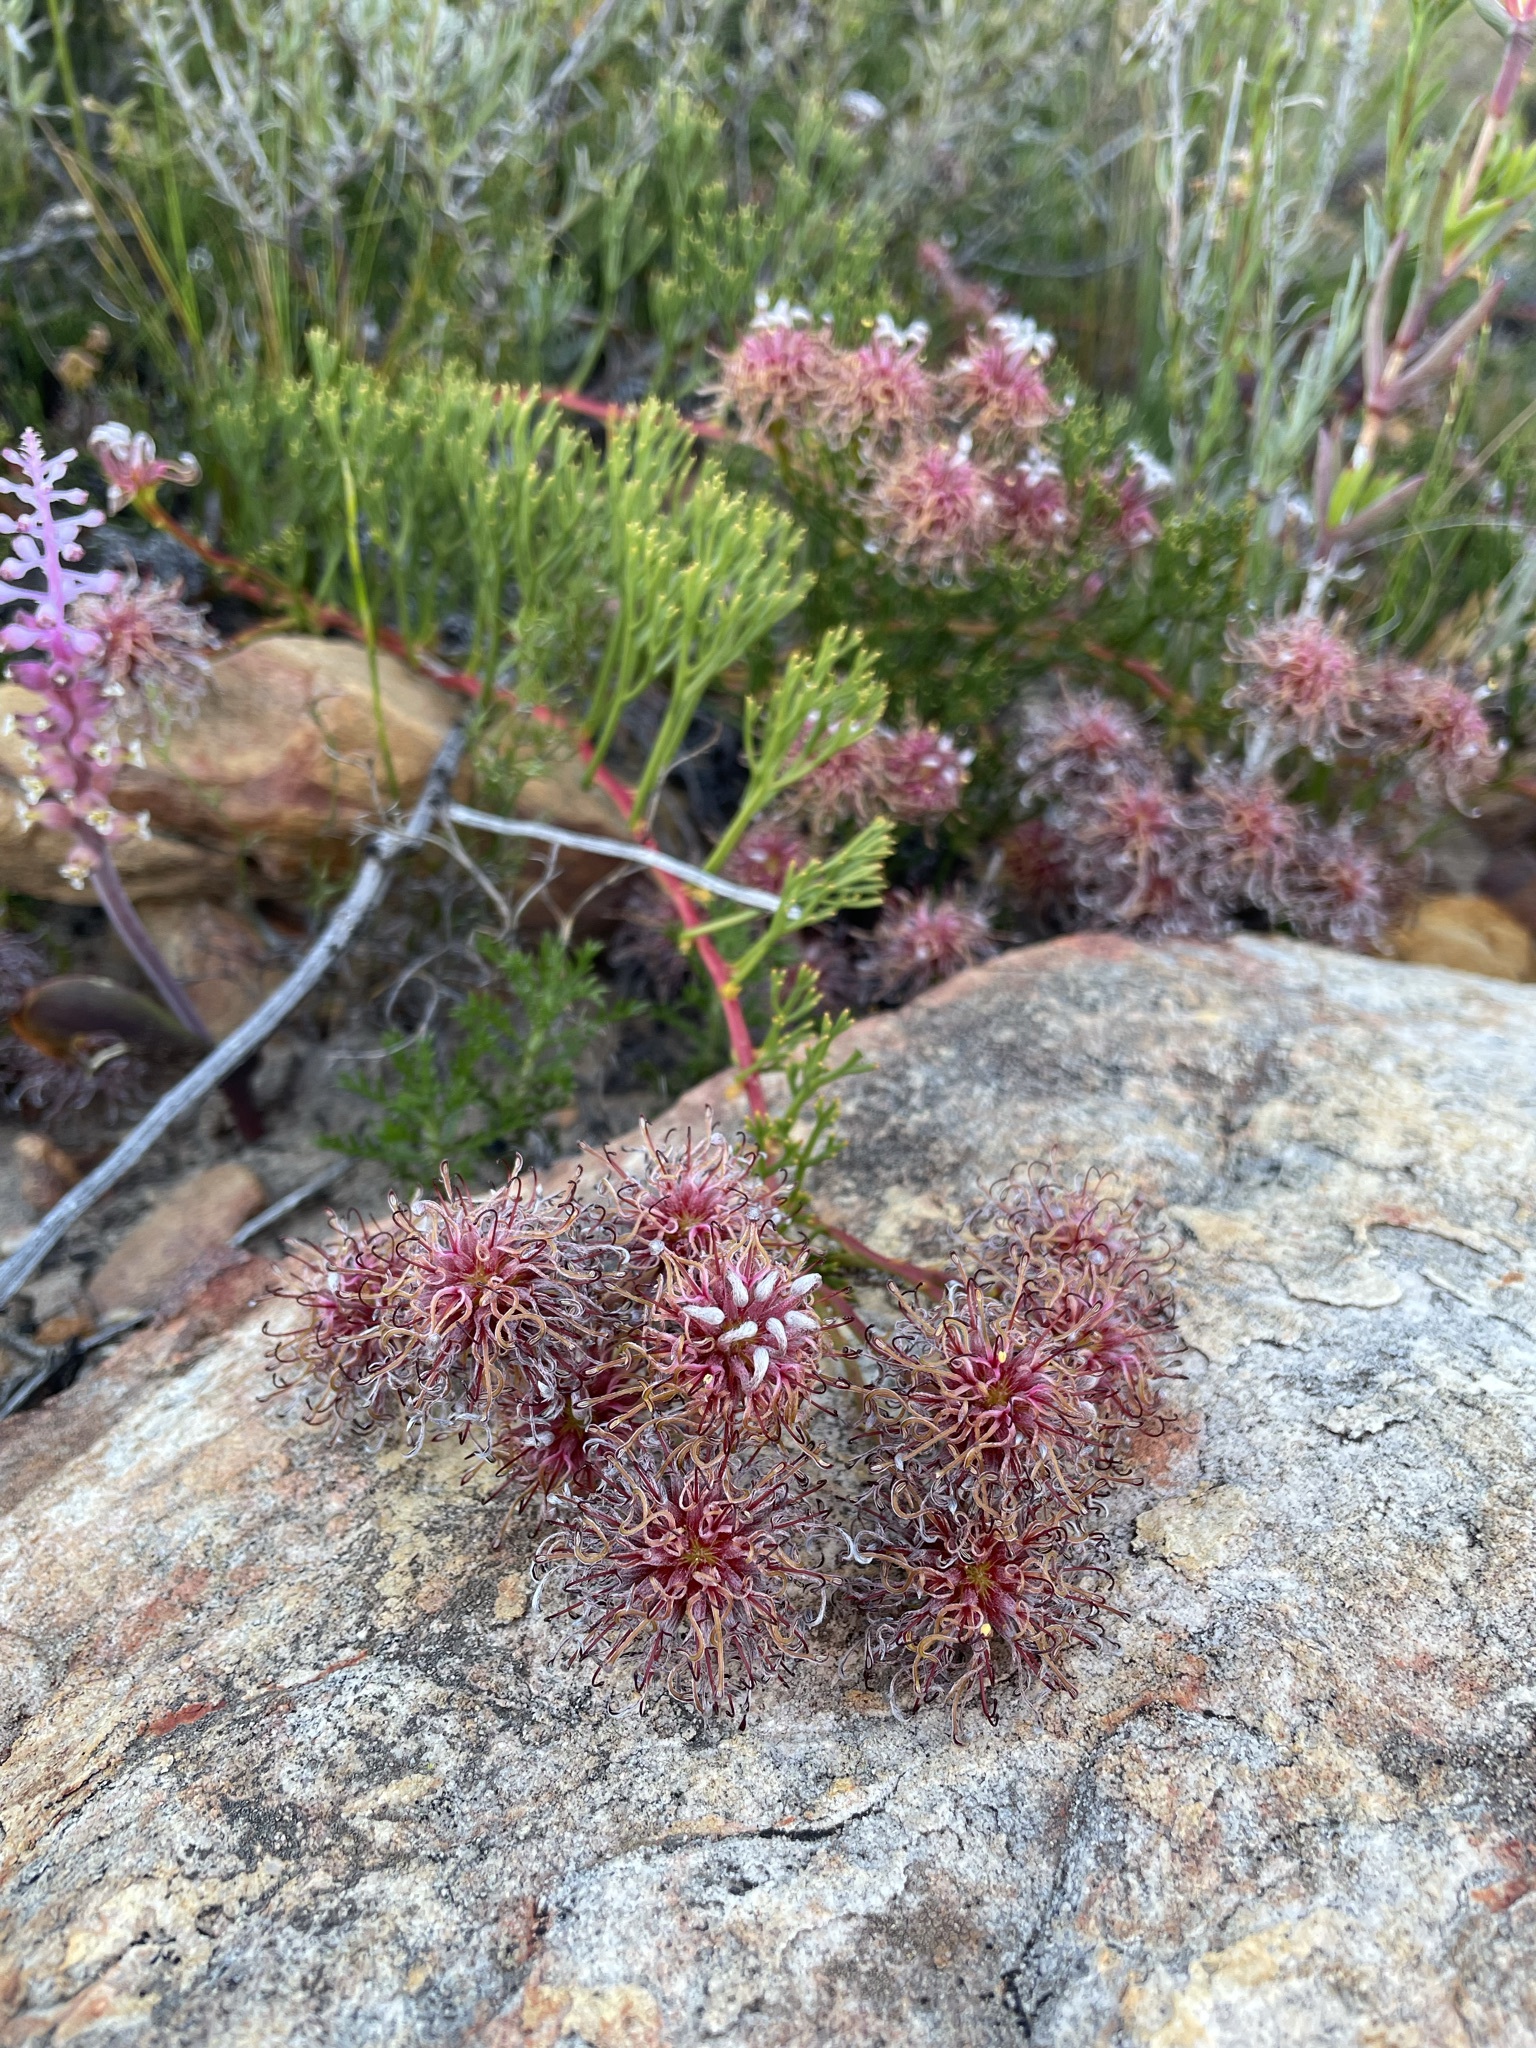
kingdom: Plantae
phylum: Tracheophyta
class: Magnoliopsida
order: Proteales
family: Proteaceae
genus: Serruria
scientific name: Serruria cygnea
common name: Swan spiderhead
